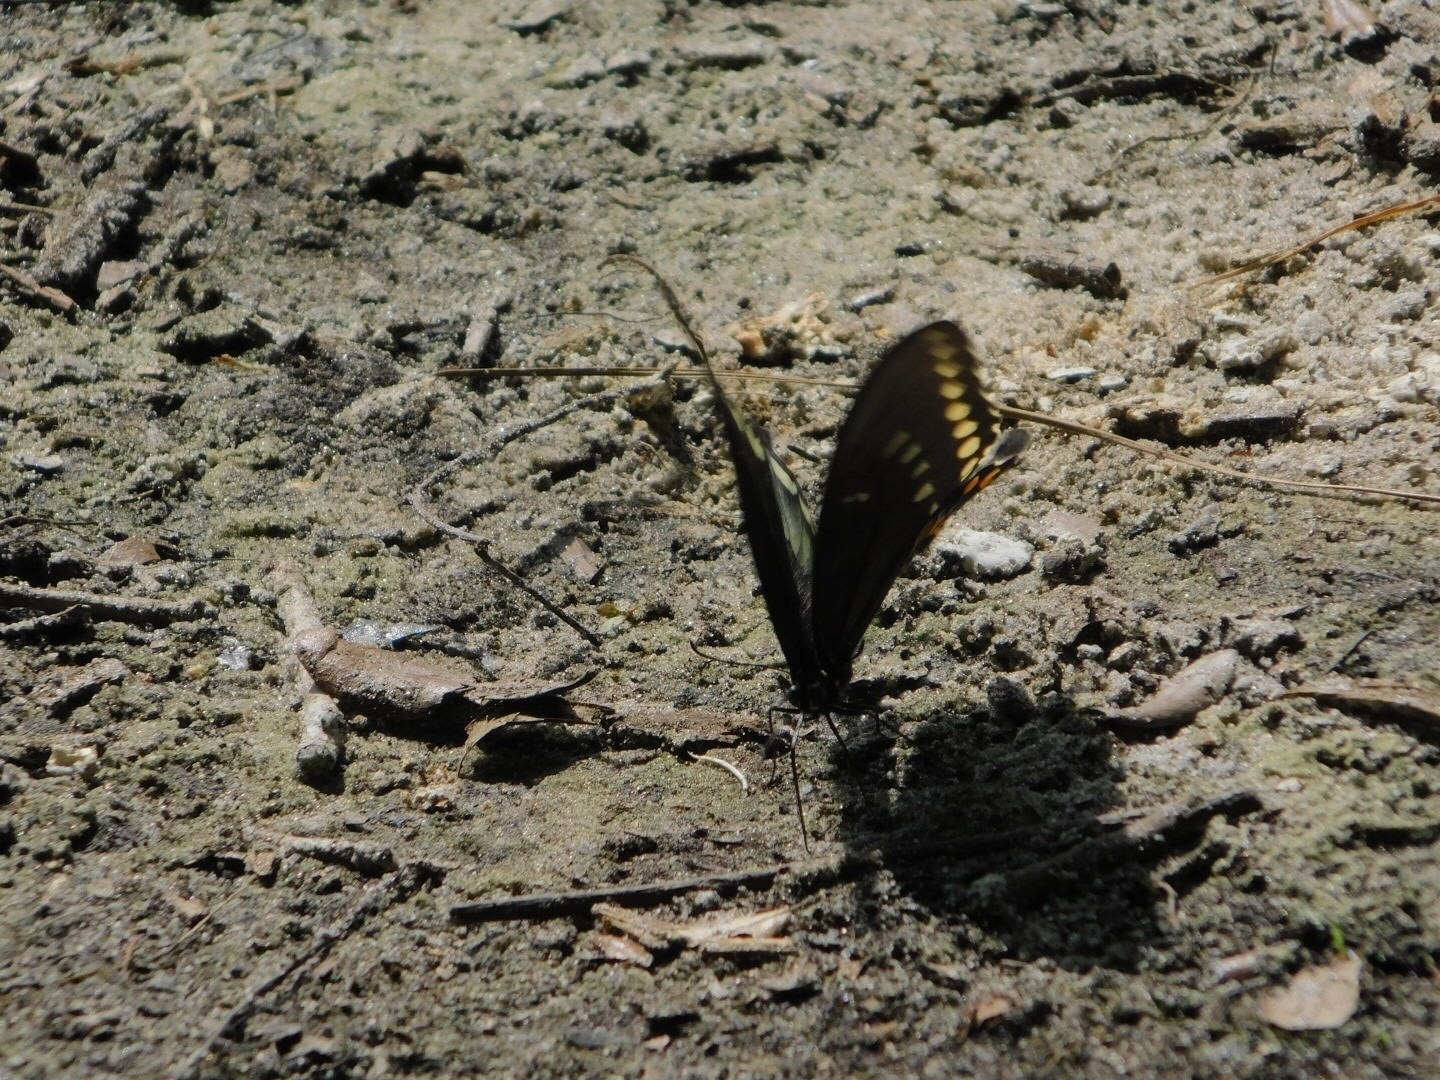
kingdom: Animalia
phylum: Arthropoda
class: Insecta
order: Lepidoptera
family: Papilionidae
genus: Papilio
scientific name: Papilio troilus
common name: Spicebush swallowtail
